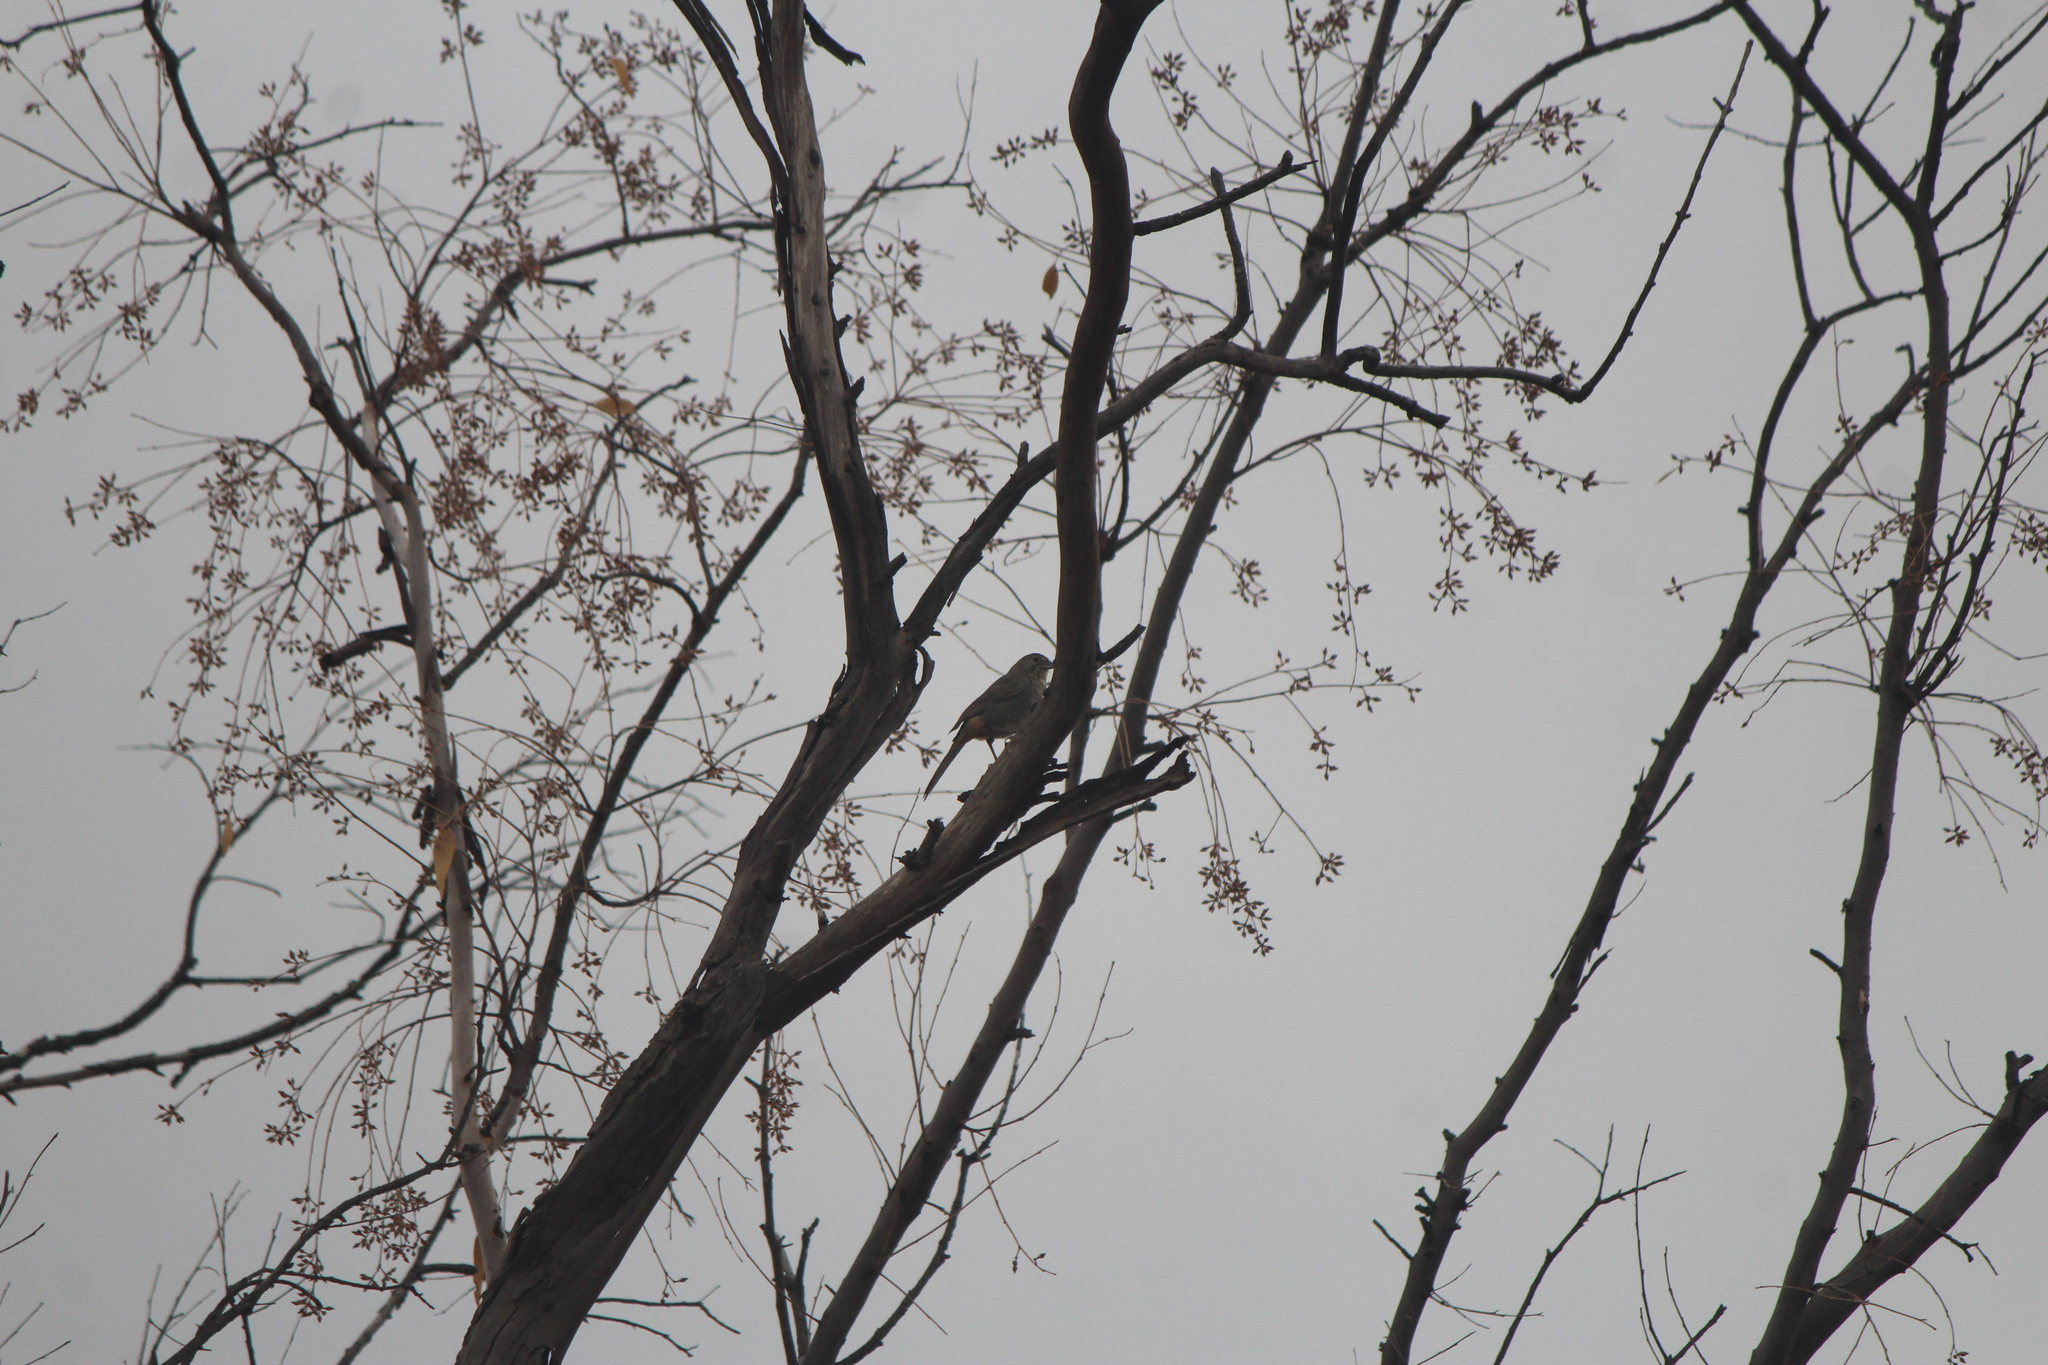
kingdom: Animalia
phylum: Chordata
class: Aves
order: Passeriformes
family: Passerellidae
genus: Melozone
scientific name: Melozone fusca
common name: Canyon towhee
